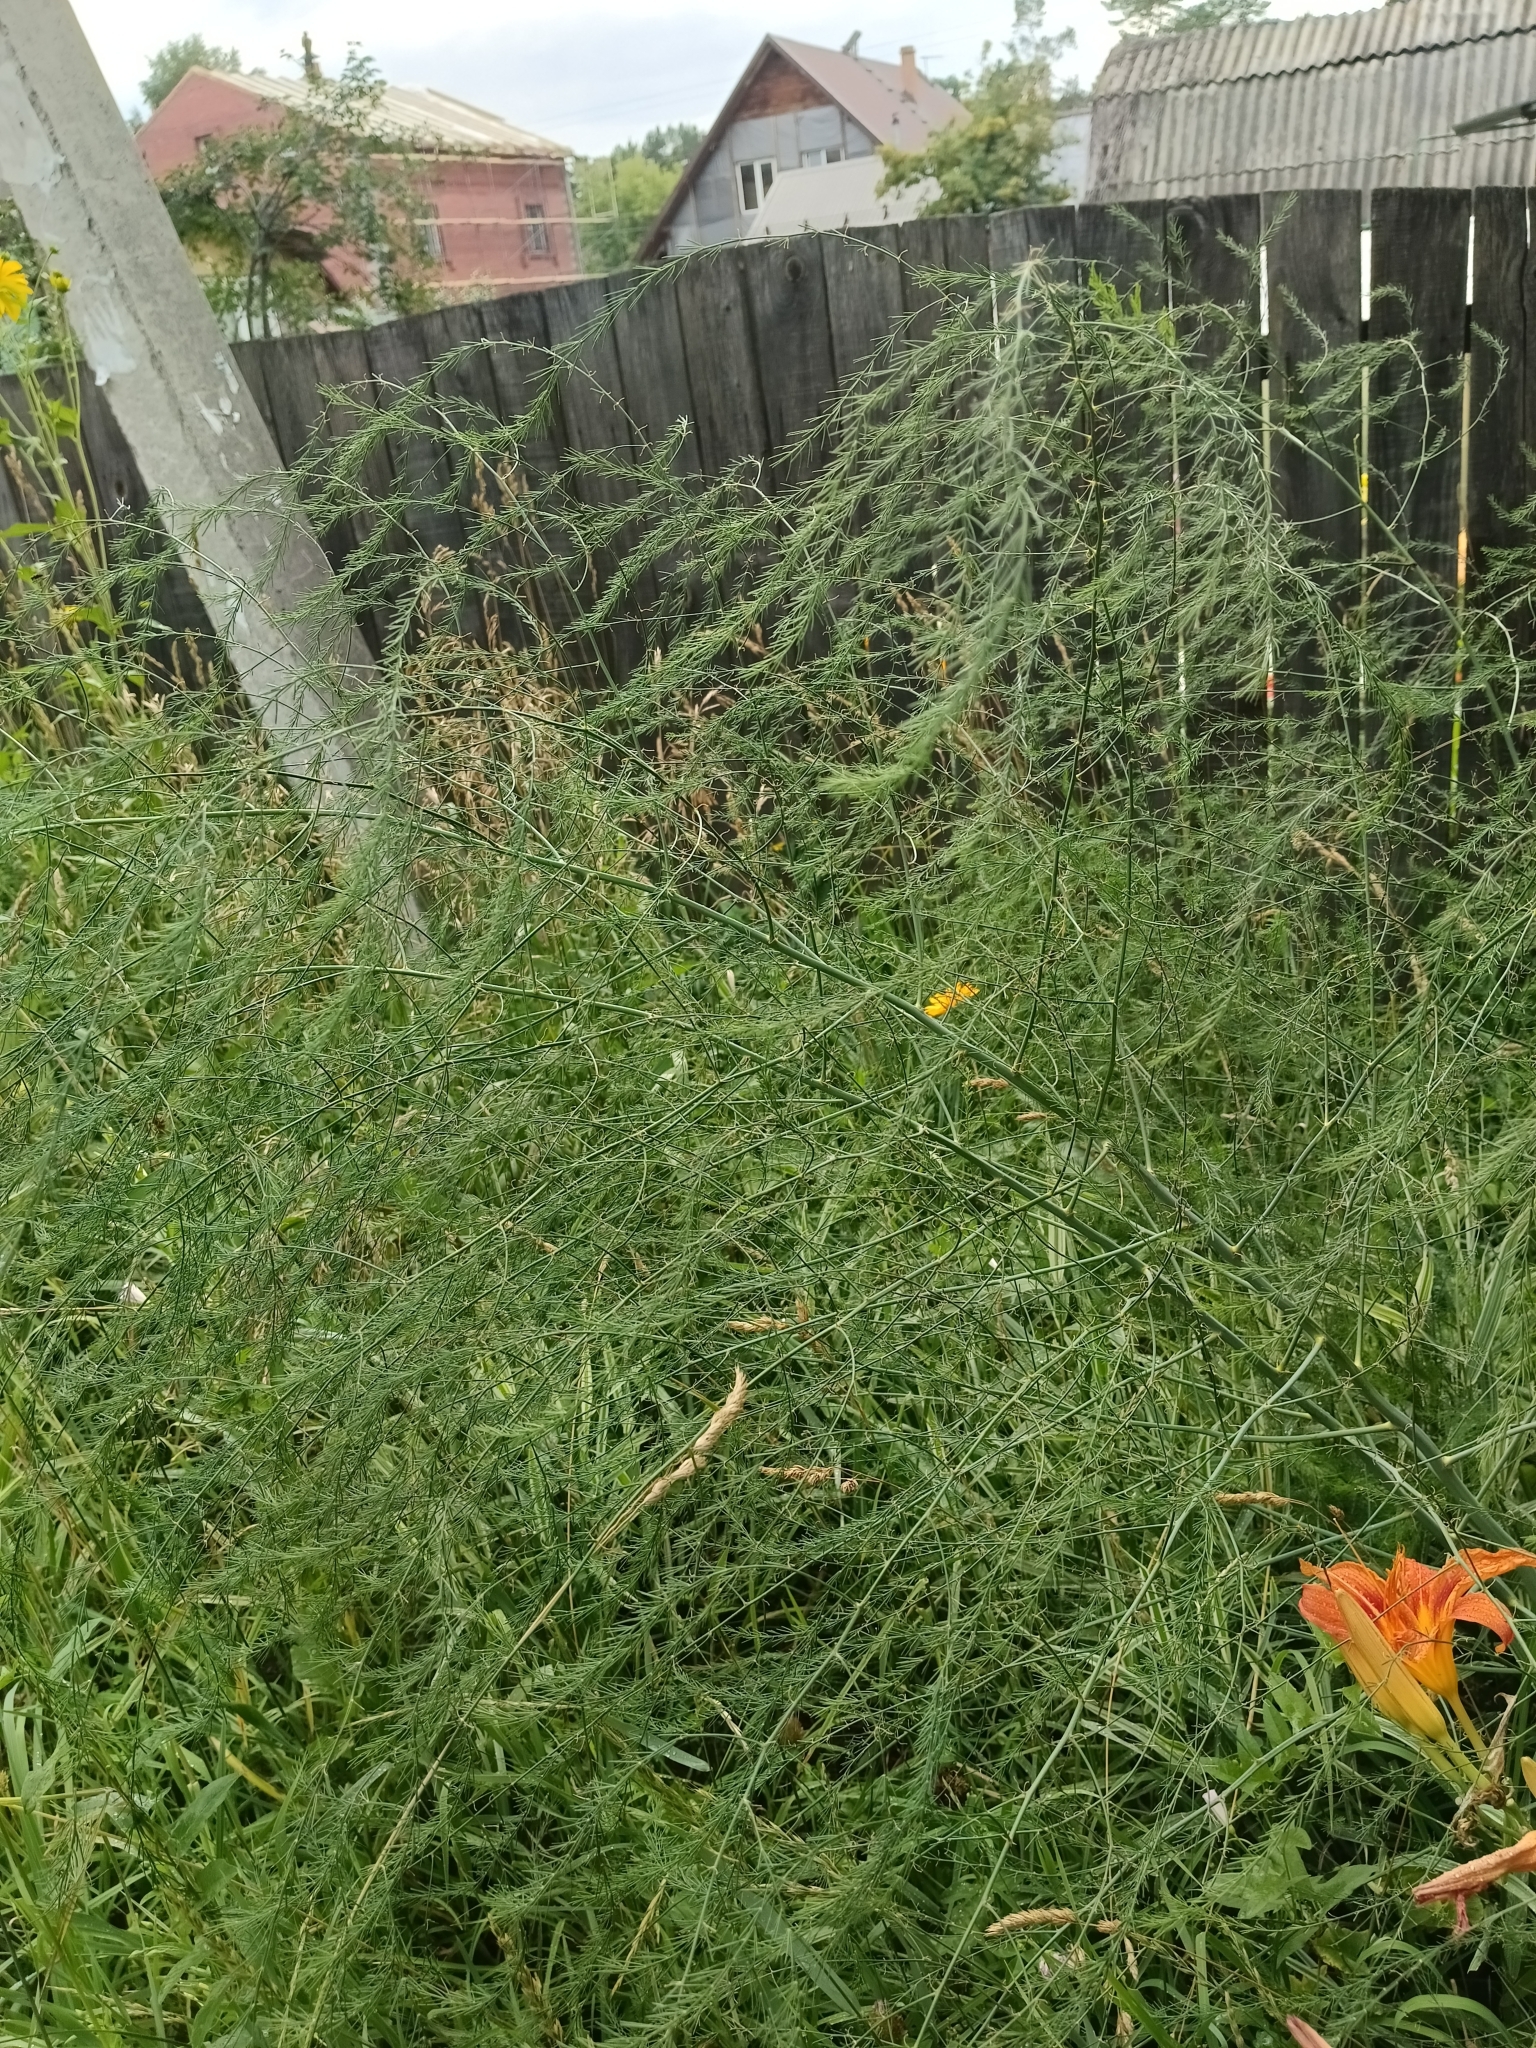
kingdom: Plantae
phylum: Tracheophyta
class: Liliopsida
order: Asparagales
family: Asparagaceae
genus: Asparagus
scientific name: Asparagus officinalis
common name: Garden asparagus
